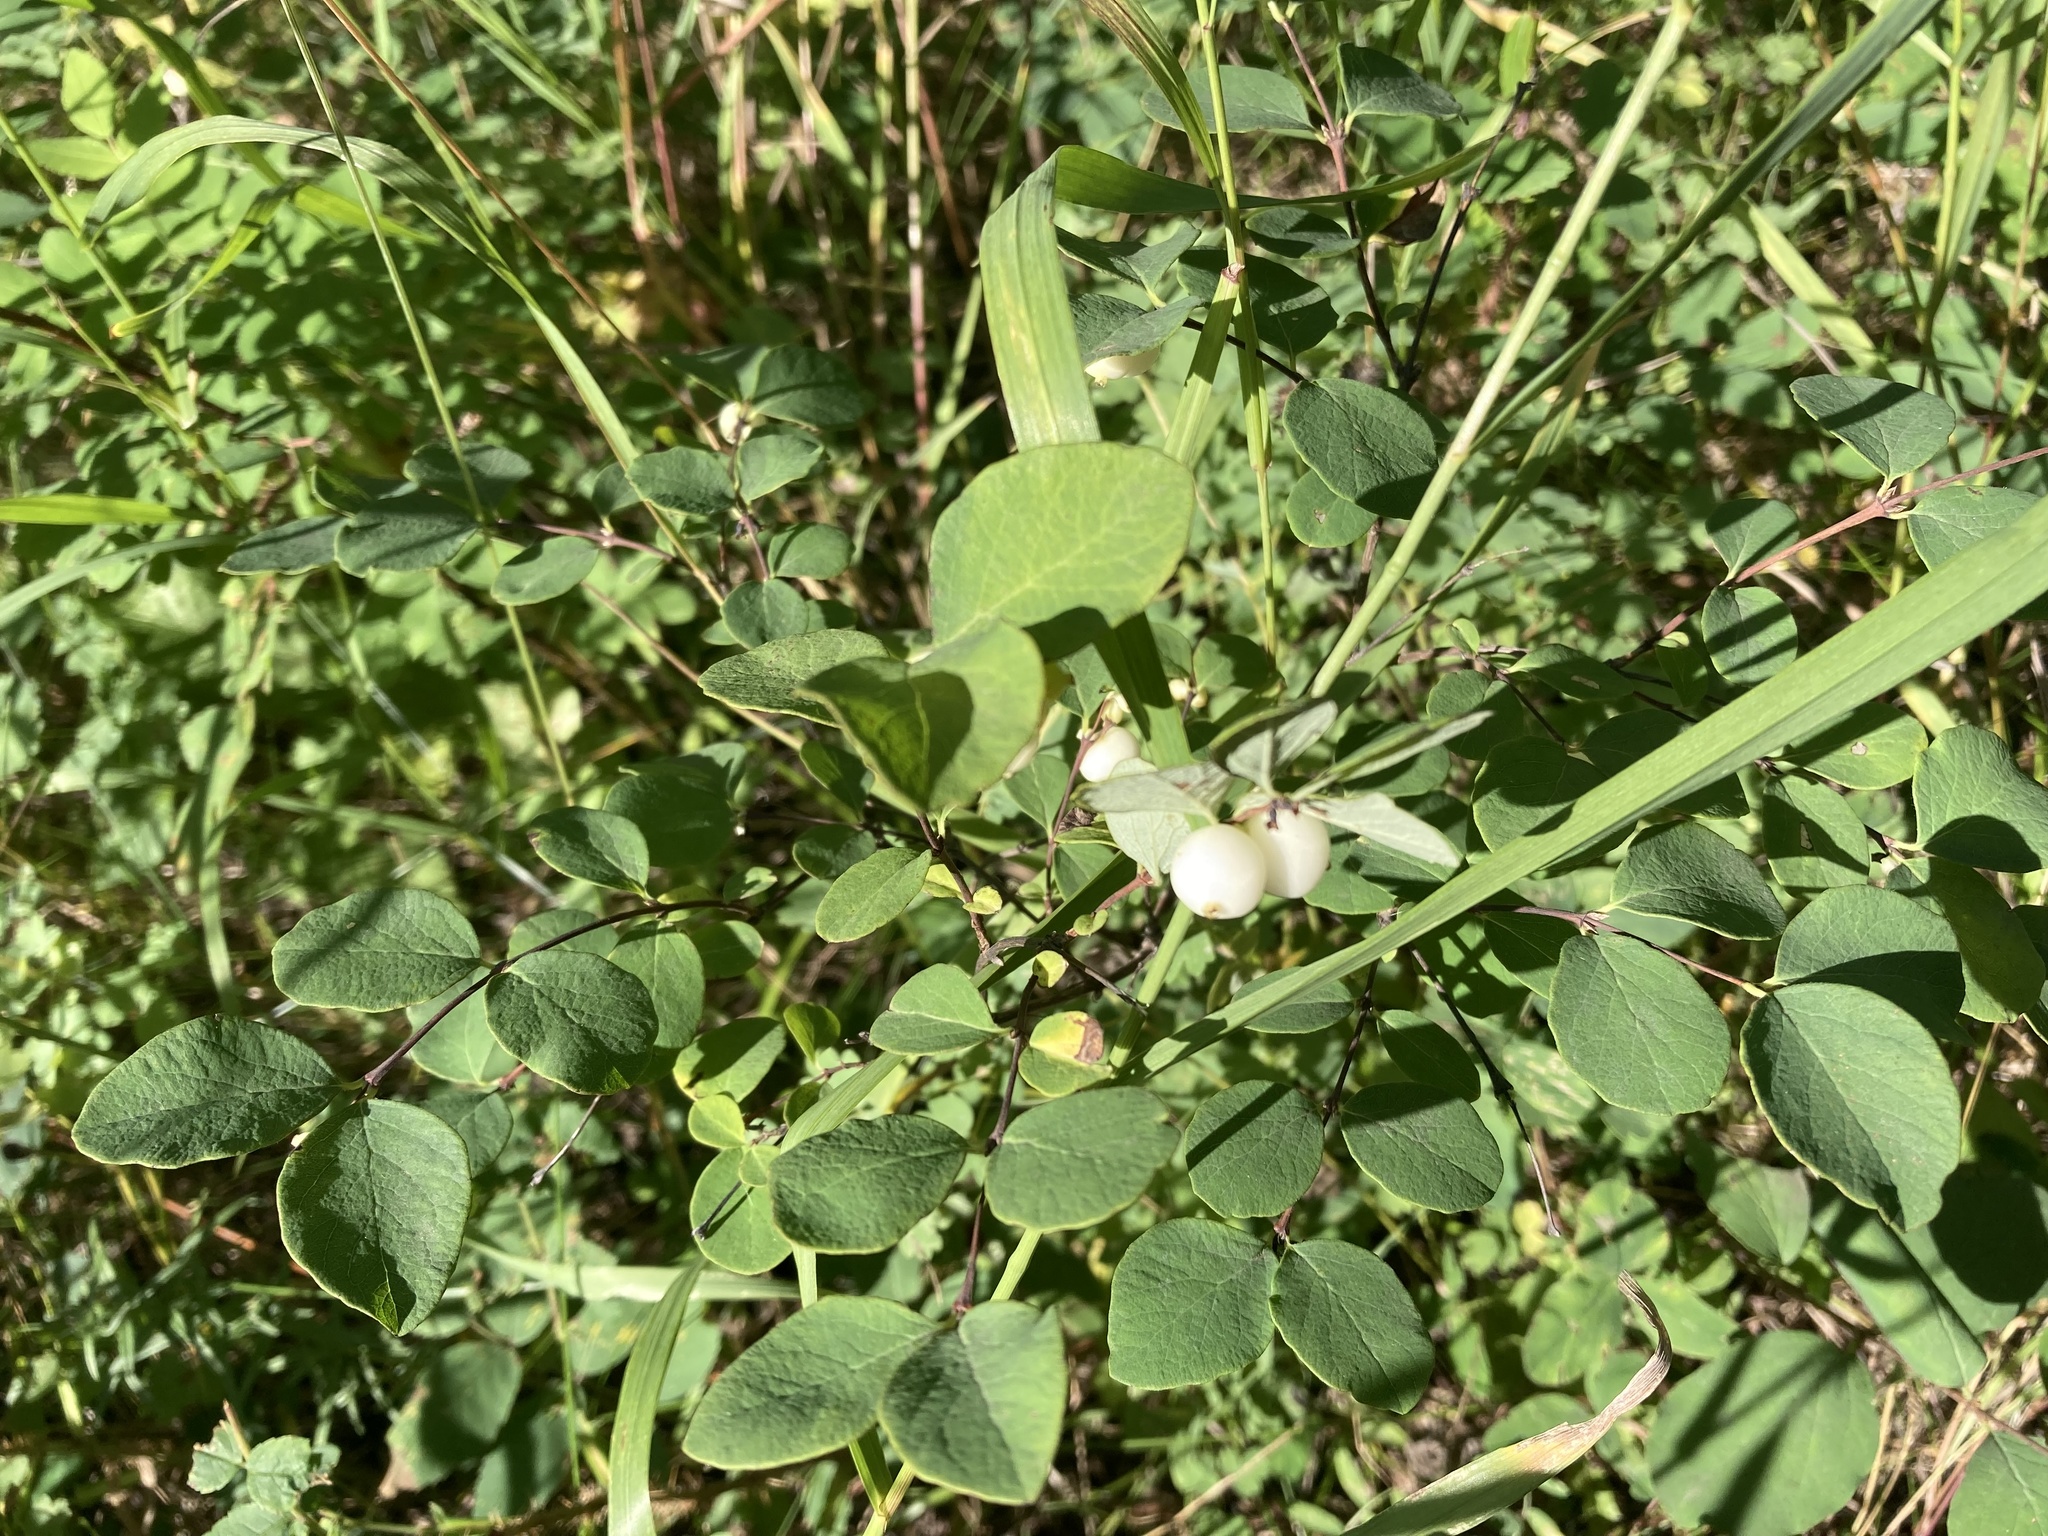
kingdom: Plantae
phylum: Tracheophyta
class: Magnoliopsida
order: Dipsacales
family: Caprifoliaceae
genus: Symphoricarpos
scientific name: Symphoricarpos albus
